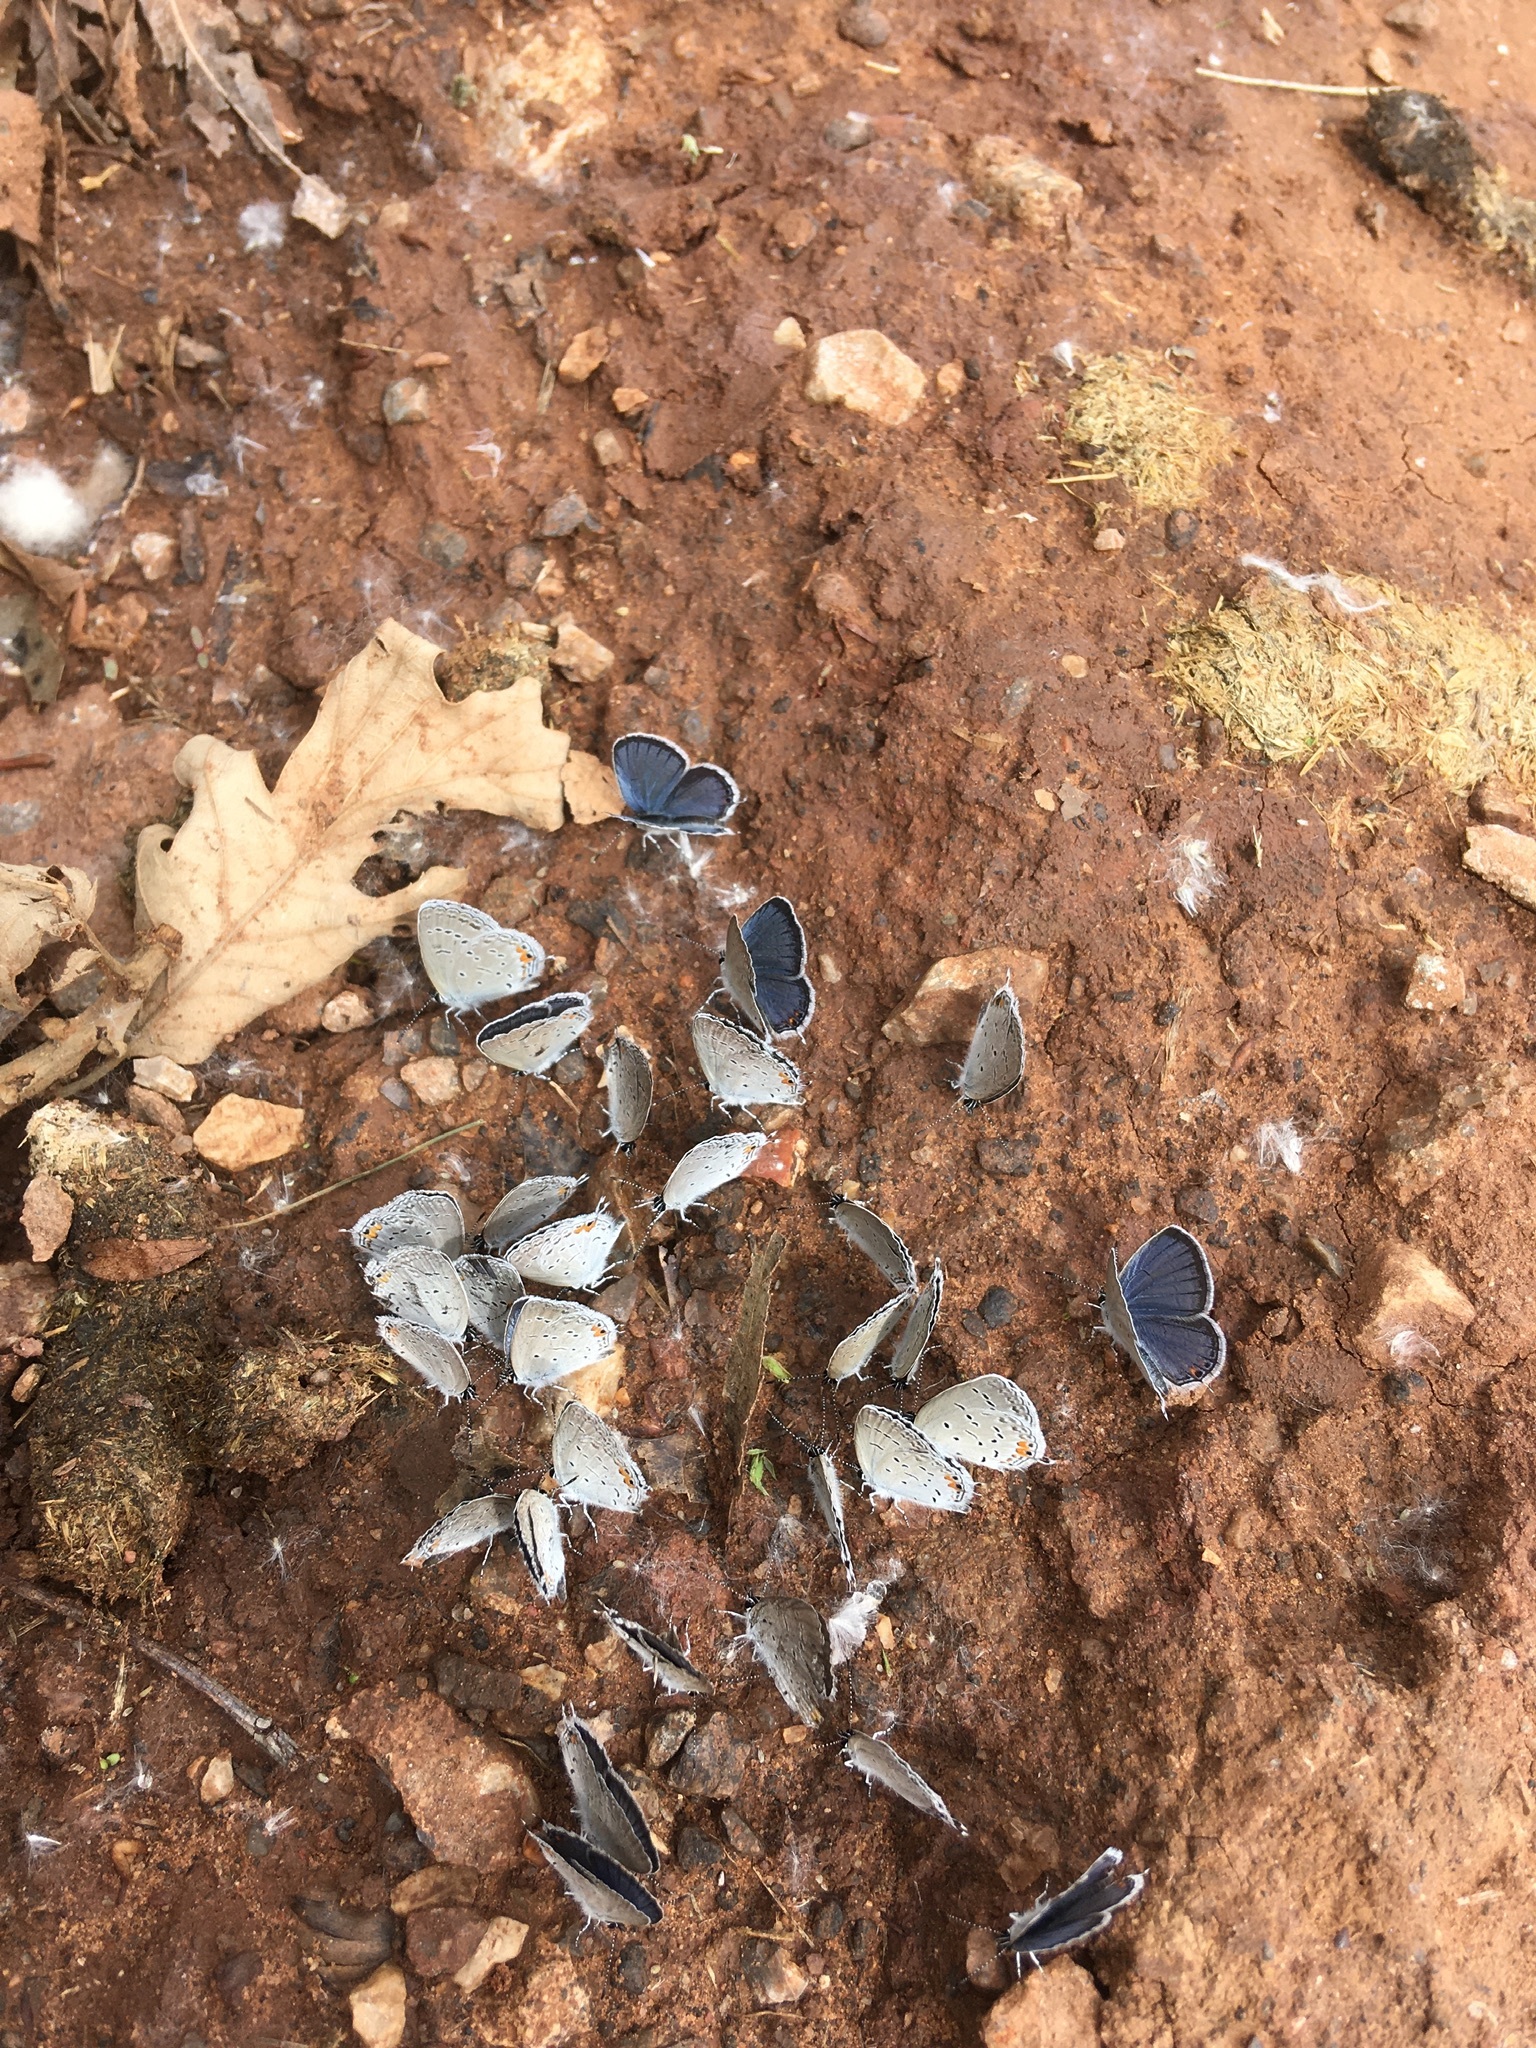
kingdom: Animalia
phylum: Arthropoda
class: Insecta
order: Lepidoptera
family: Lycaenidae
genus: Elkalyce
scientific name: Elkalyce comyntas
